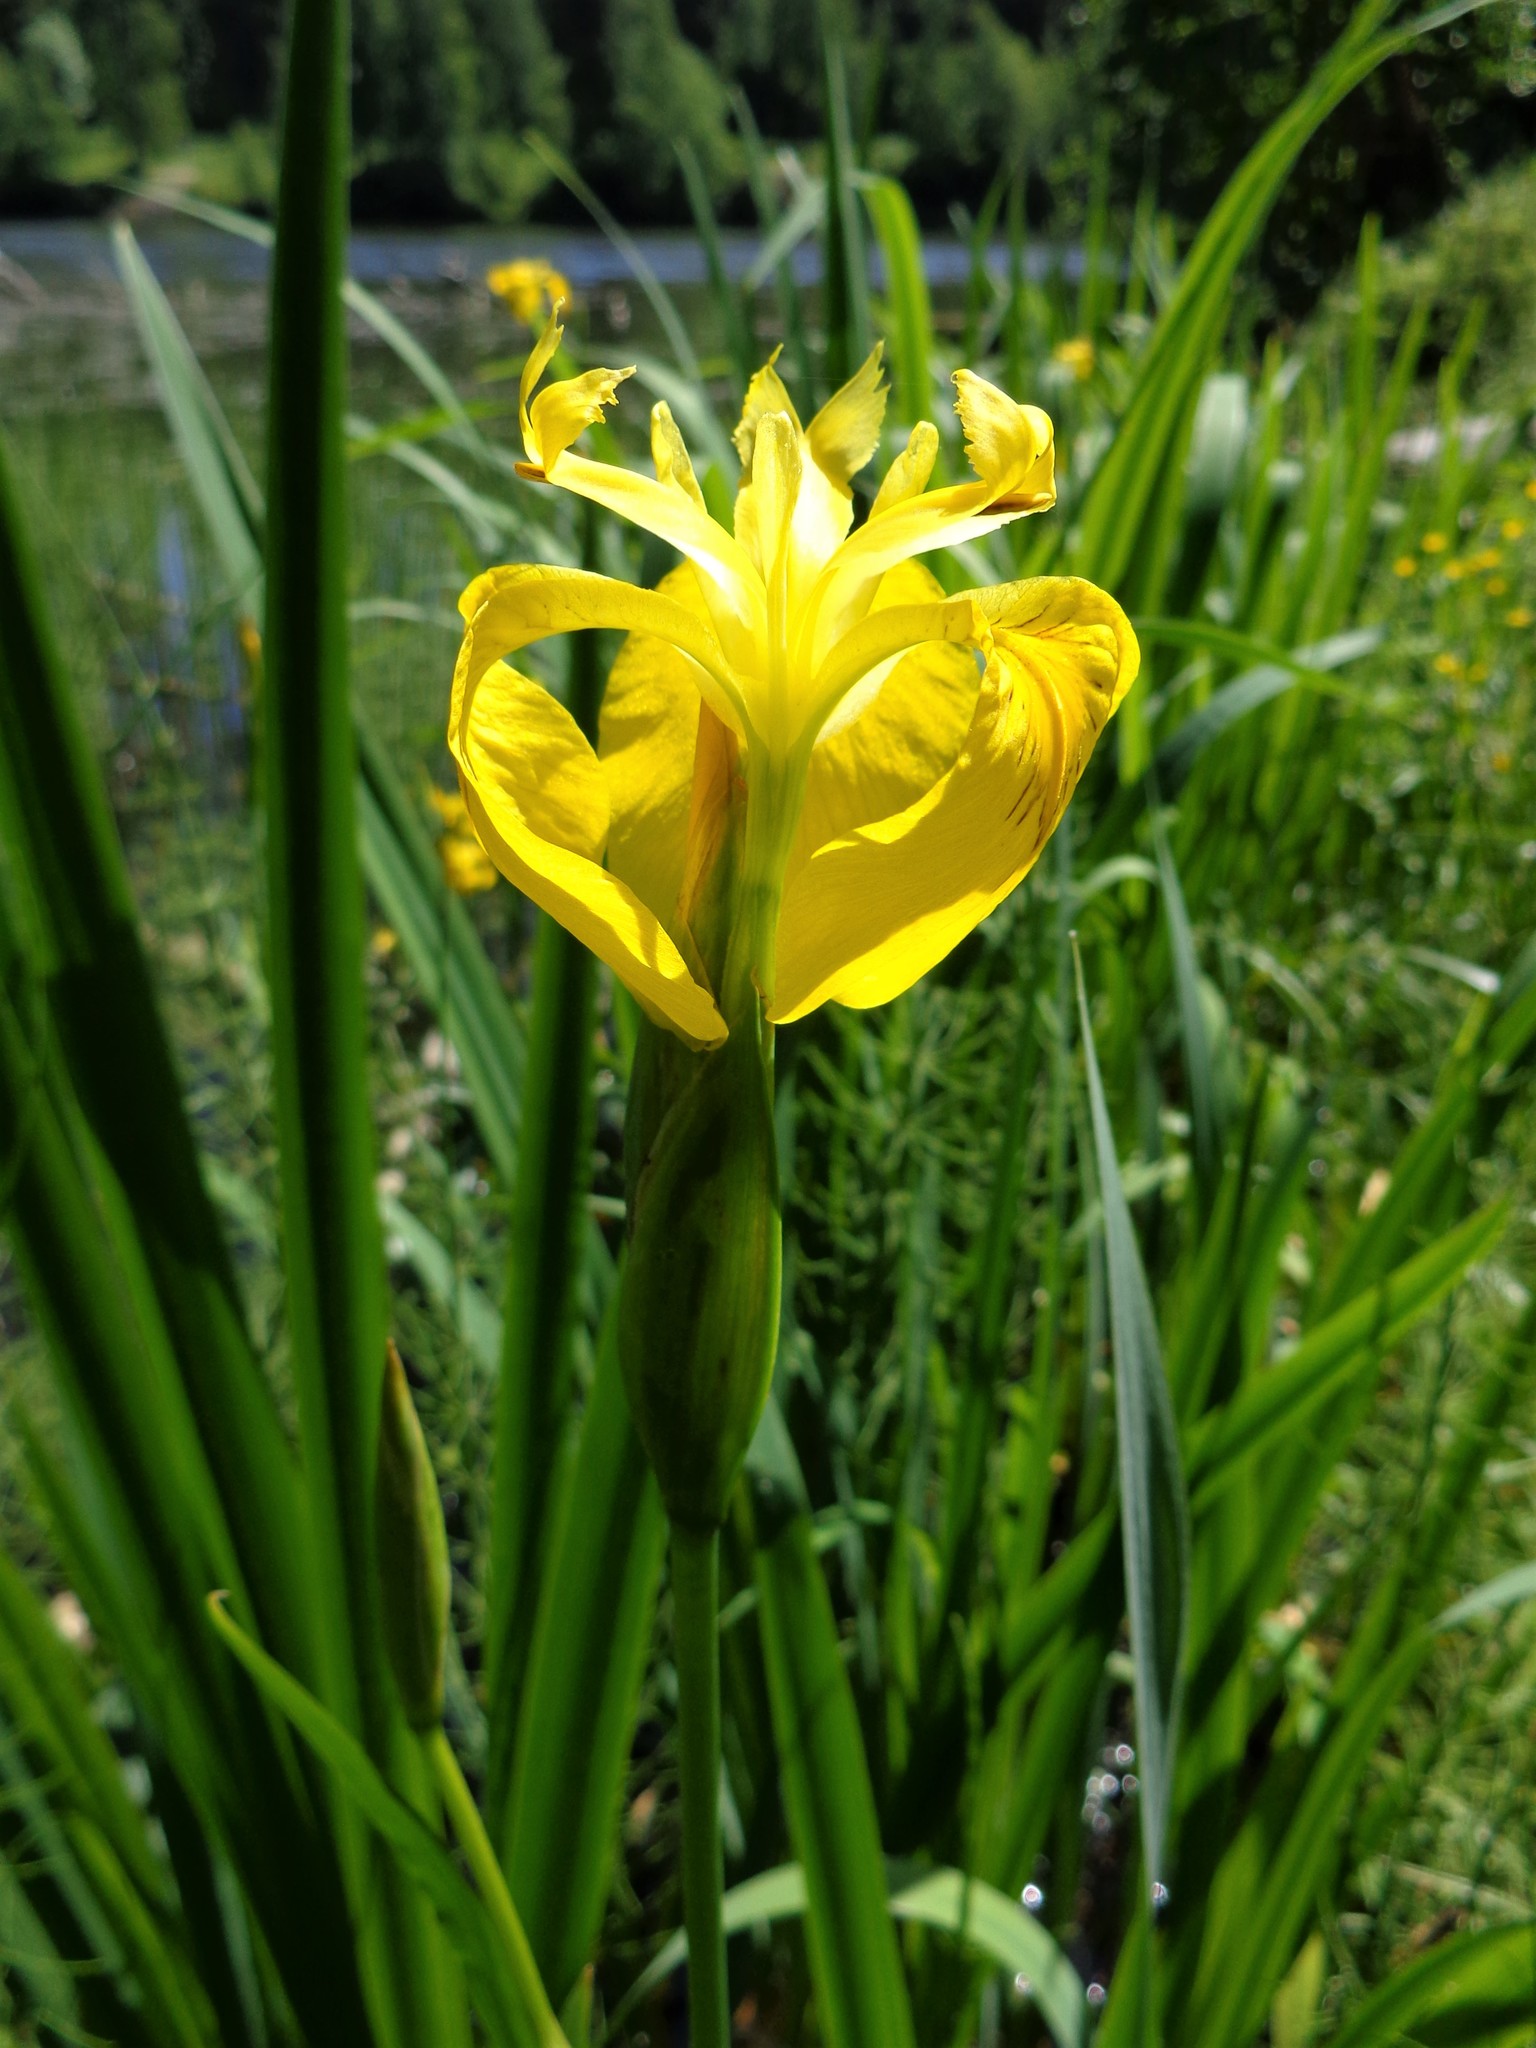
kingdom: Plantae
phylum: Tracheophyta
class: Liliopsida
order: Asparagales
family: Iridaceae
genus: Iris
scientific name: Iris pseudacorus
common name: Yellow flag
